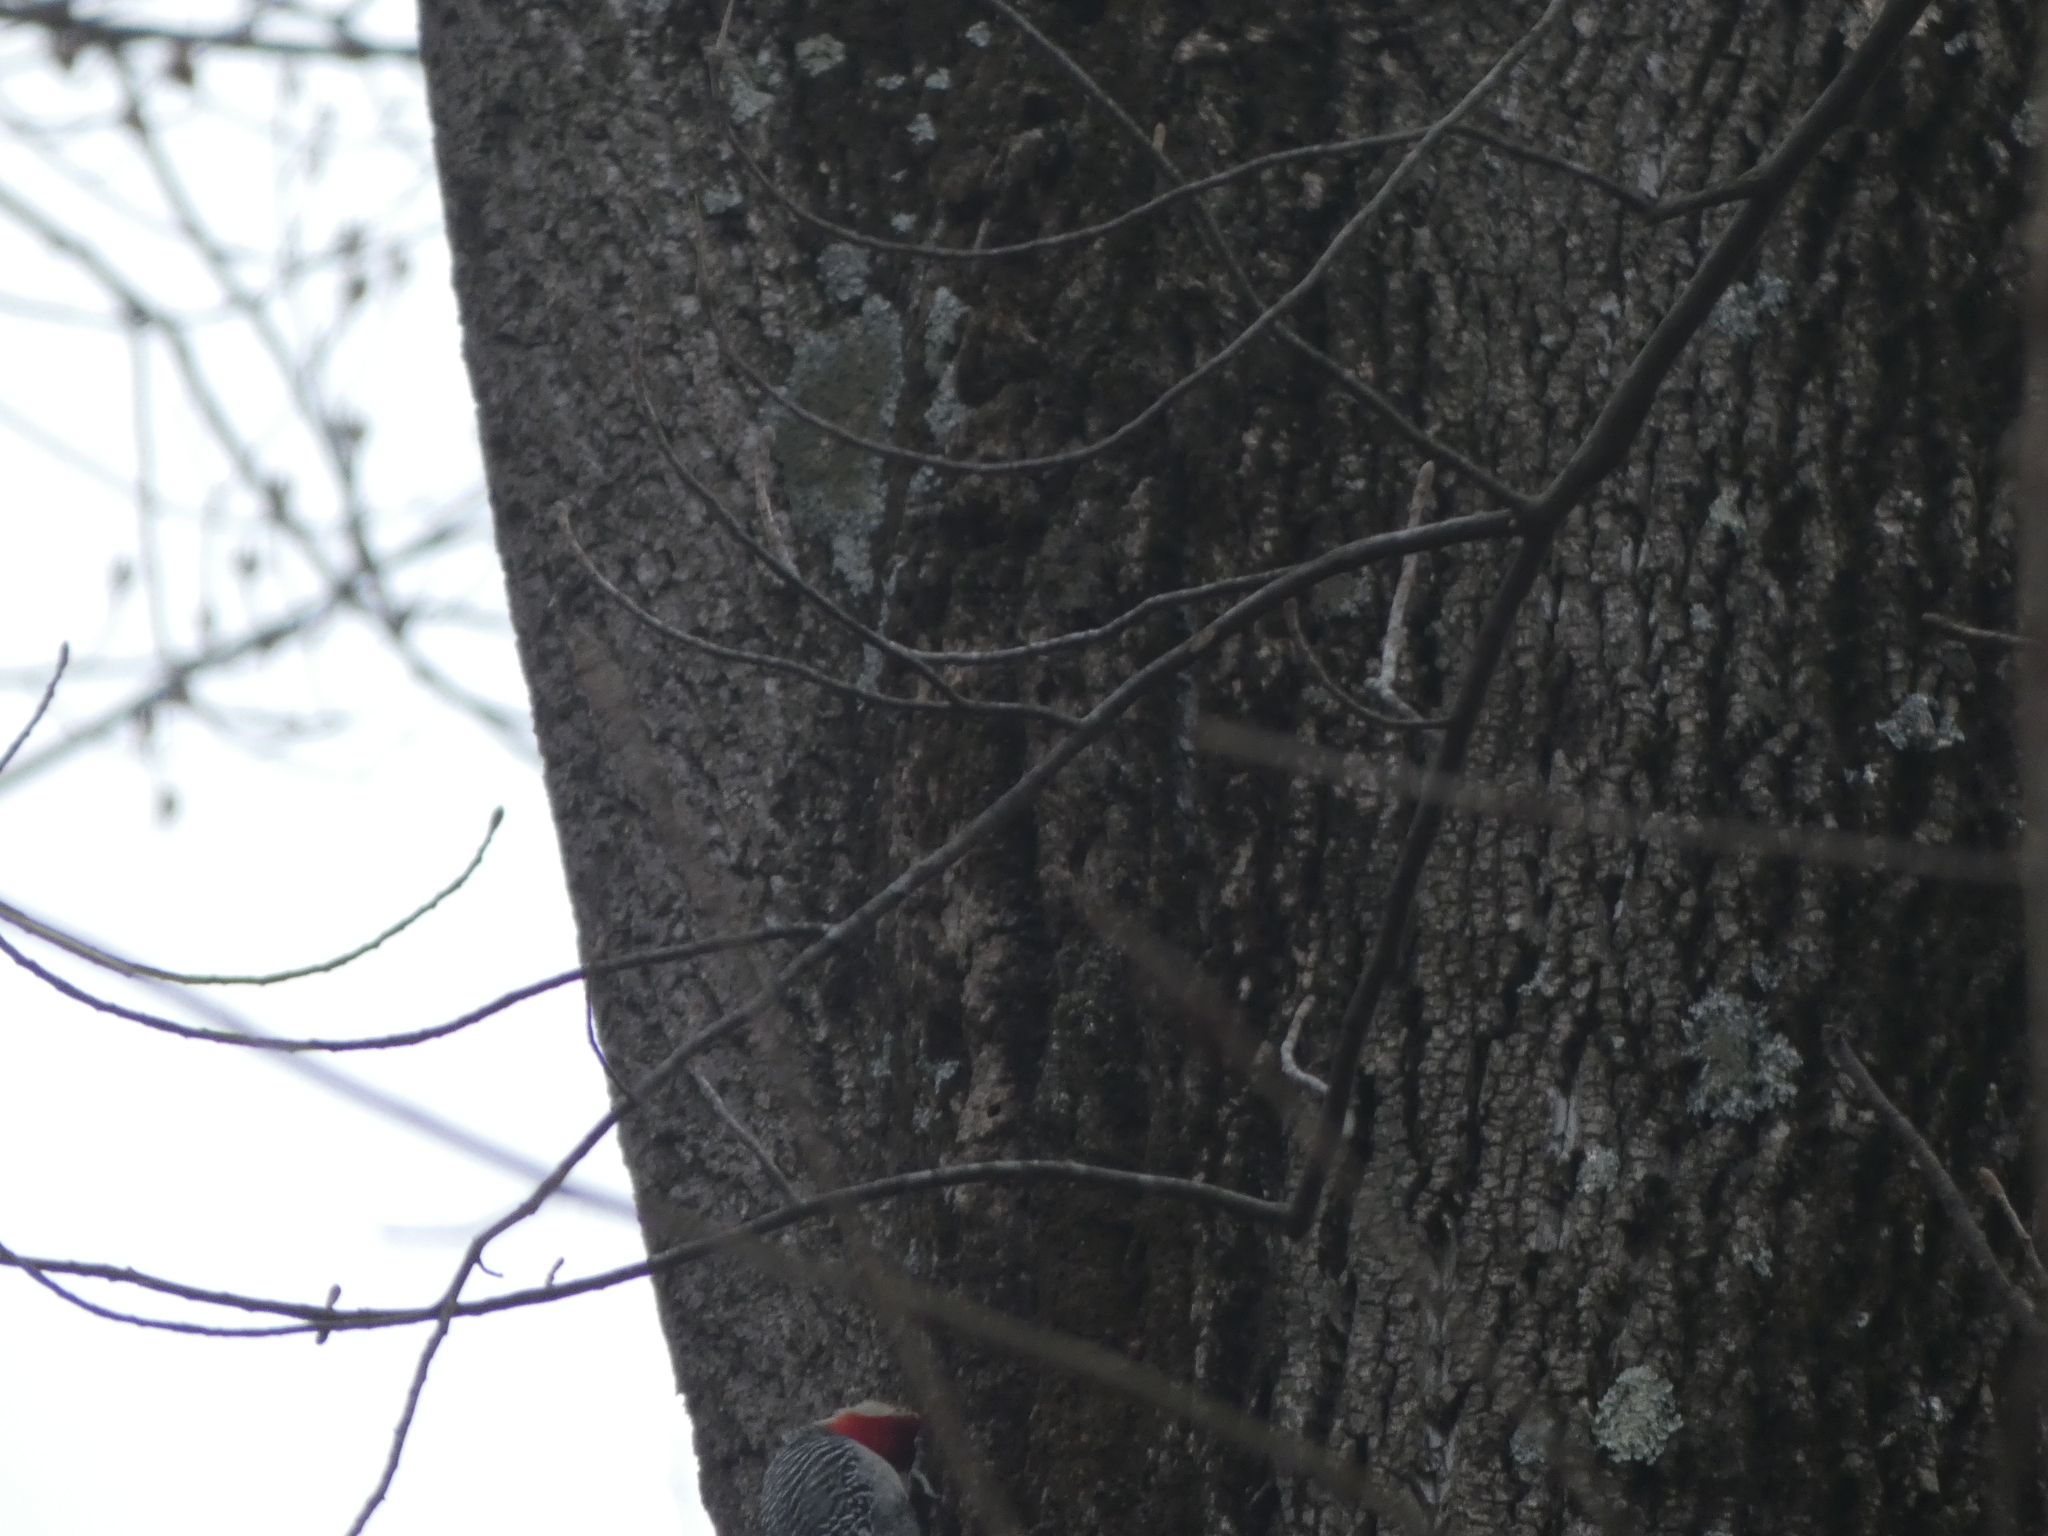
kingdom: Animalia
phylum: Chordata
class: Aves
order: Piciformes
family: Picidae
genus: Melanerpes
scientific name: Melanerpes carolinus
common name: Red-bellied woodpecker
